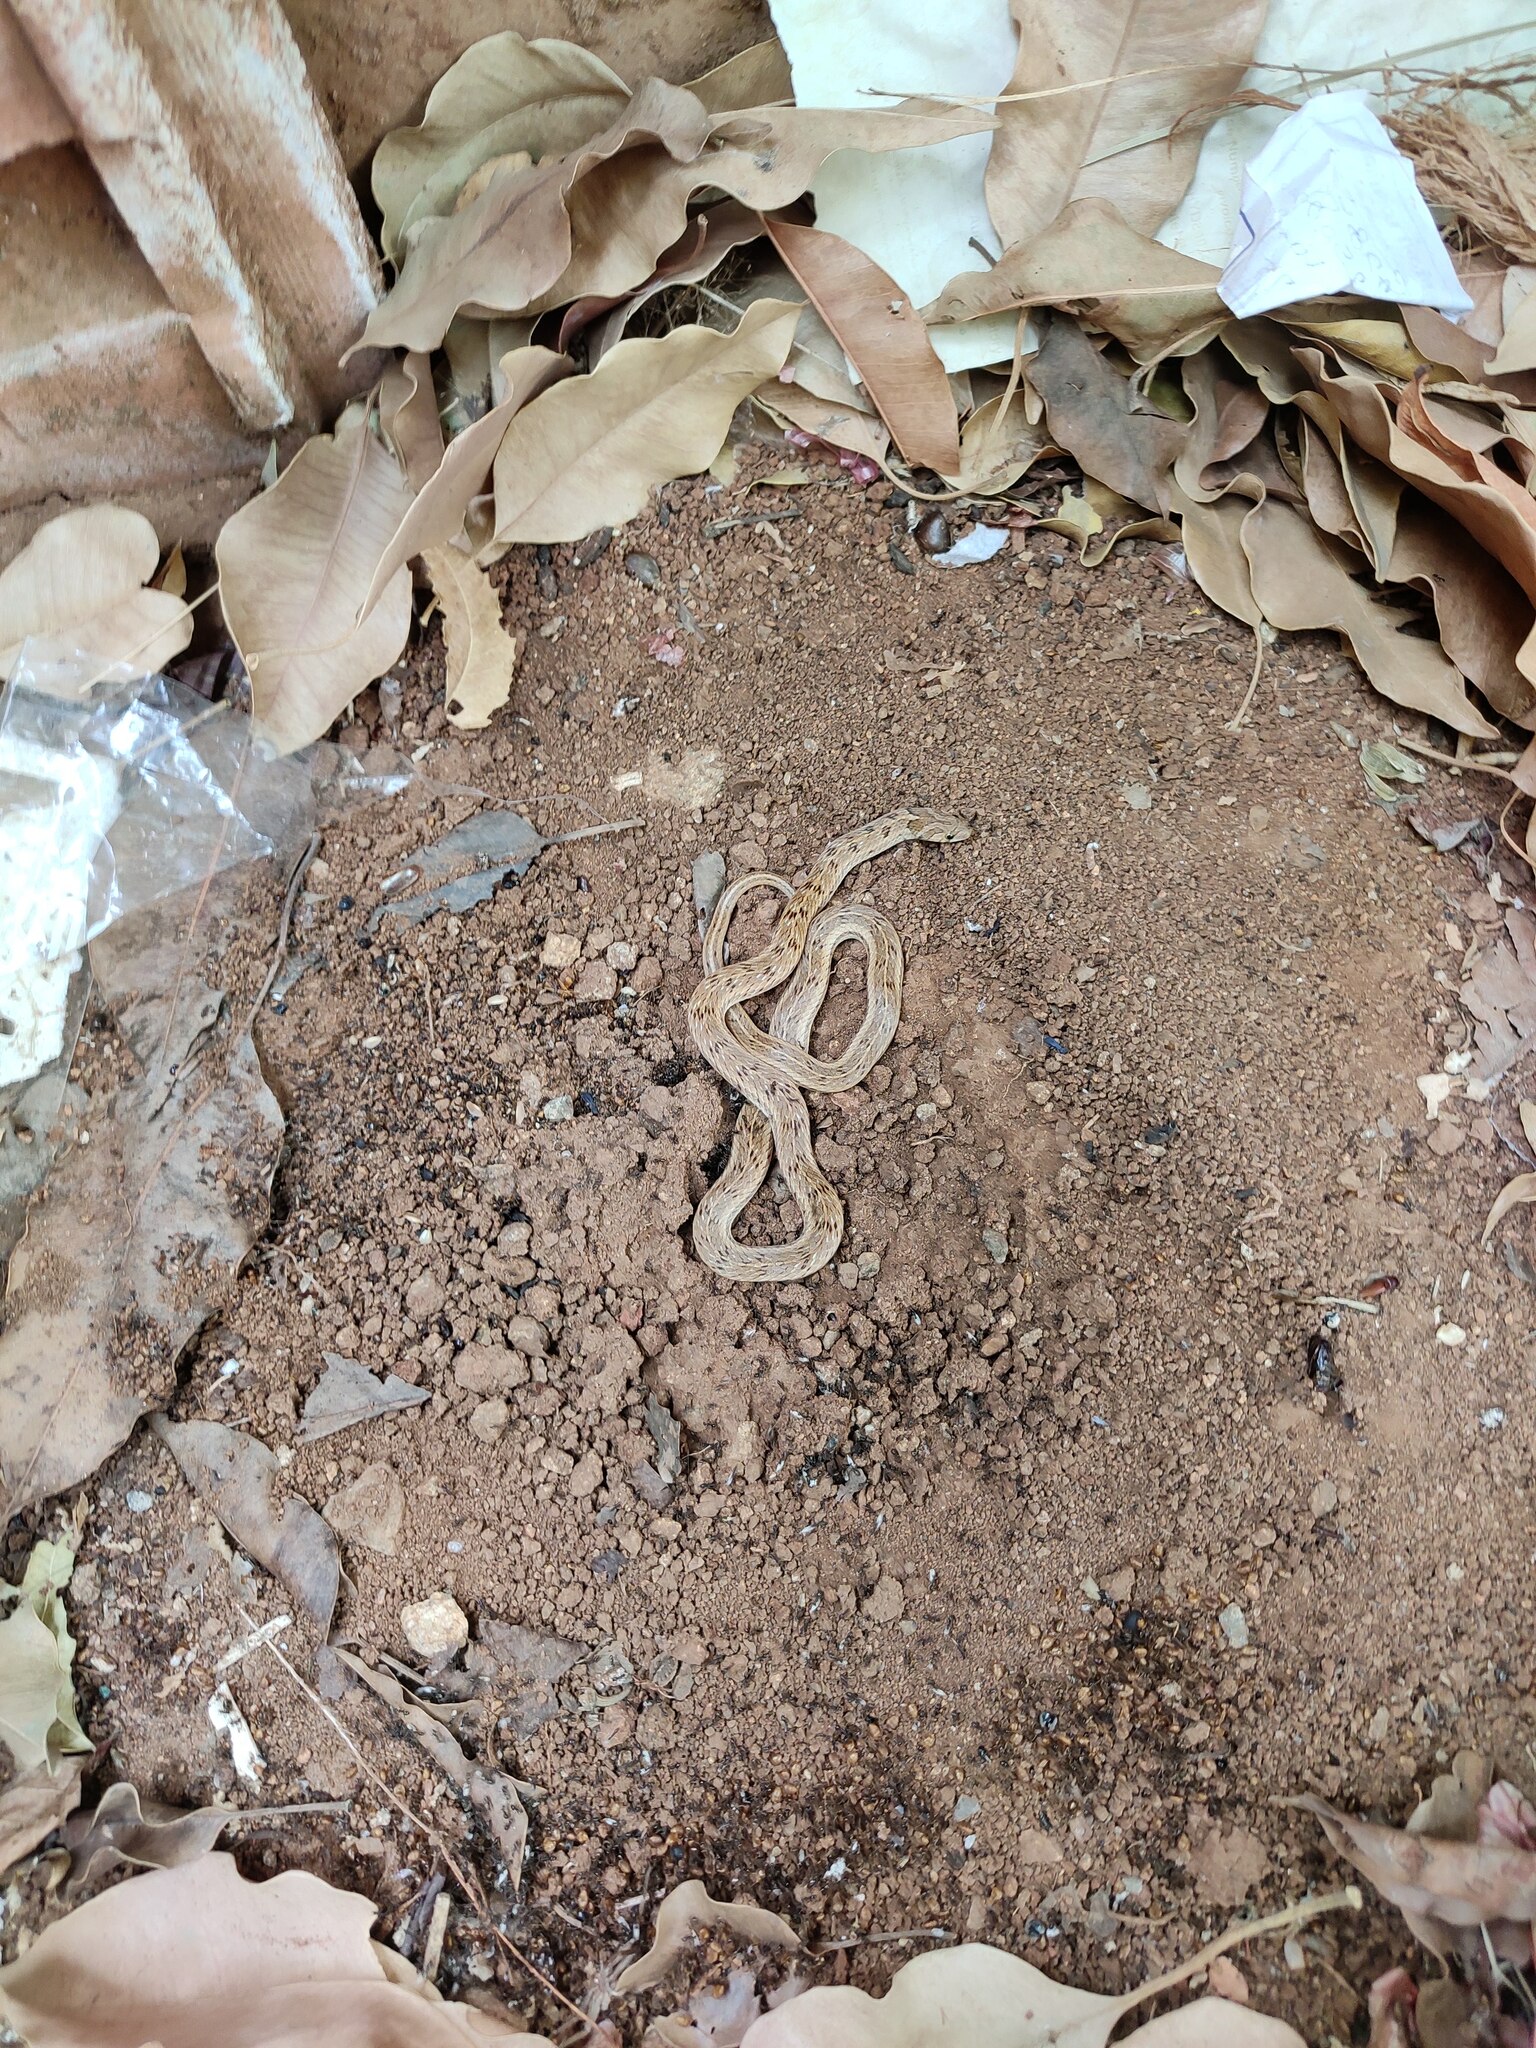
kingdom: Animalia
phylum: Chordata
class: Squamata
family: Colubridae
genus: Oligodon
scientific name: Oligodon taeniolatus
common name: Loos snake
